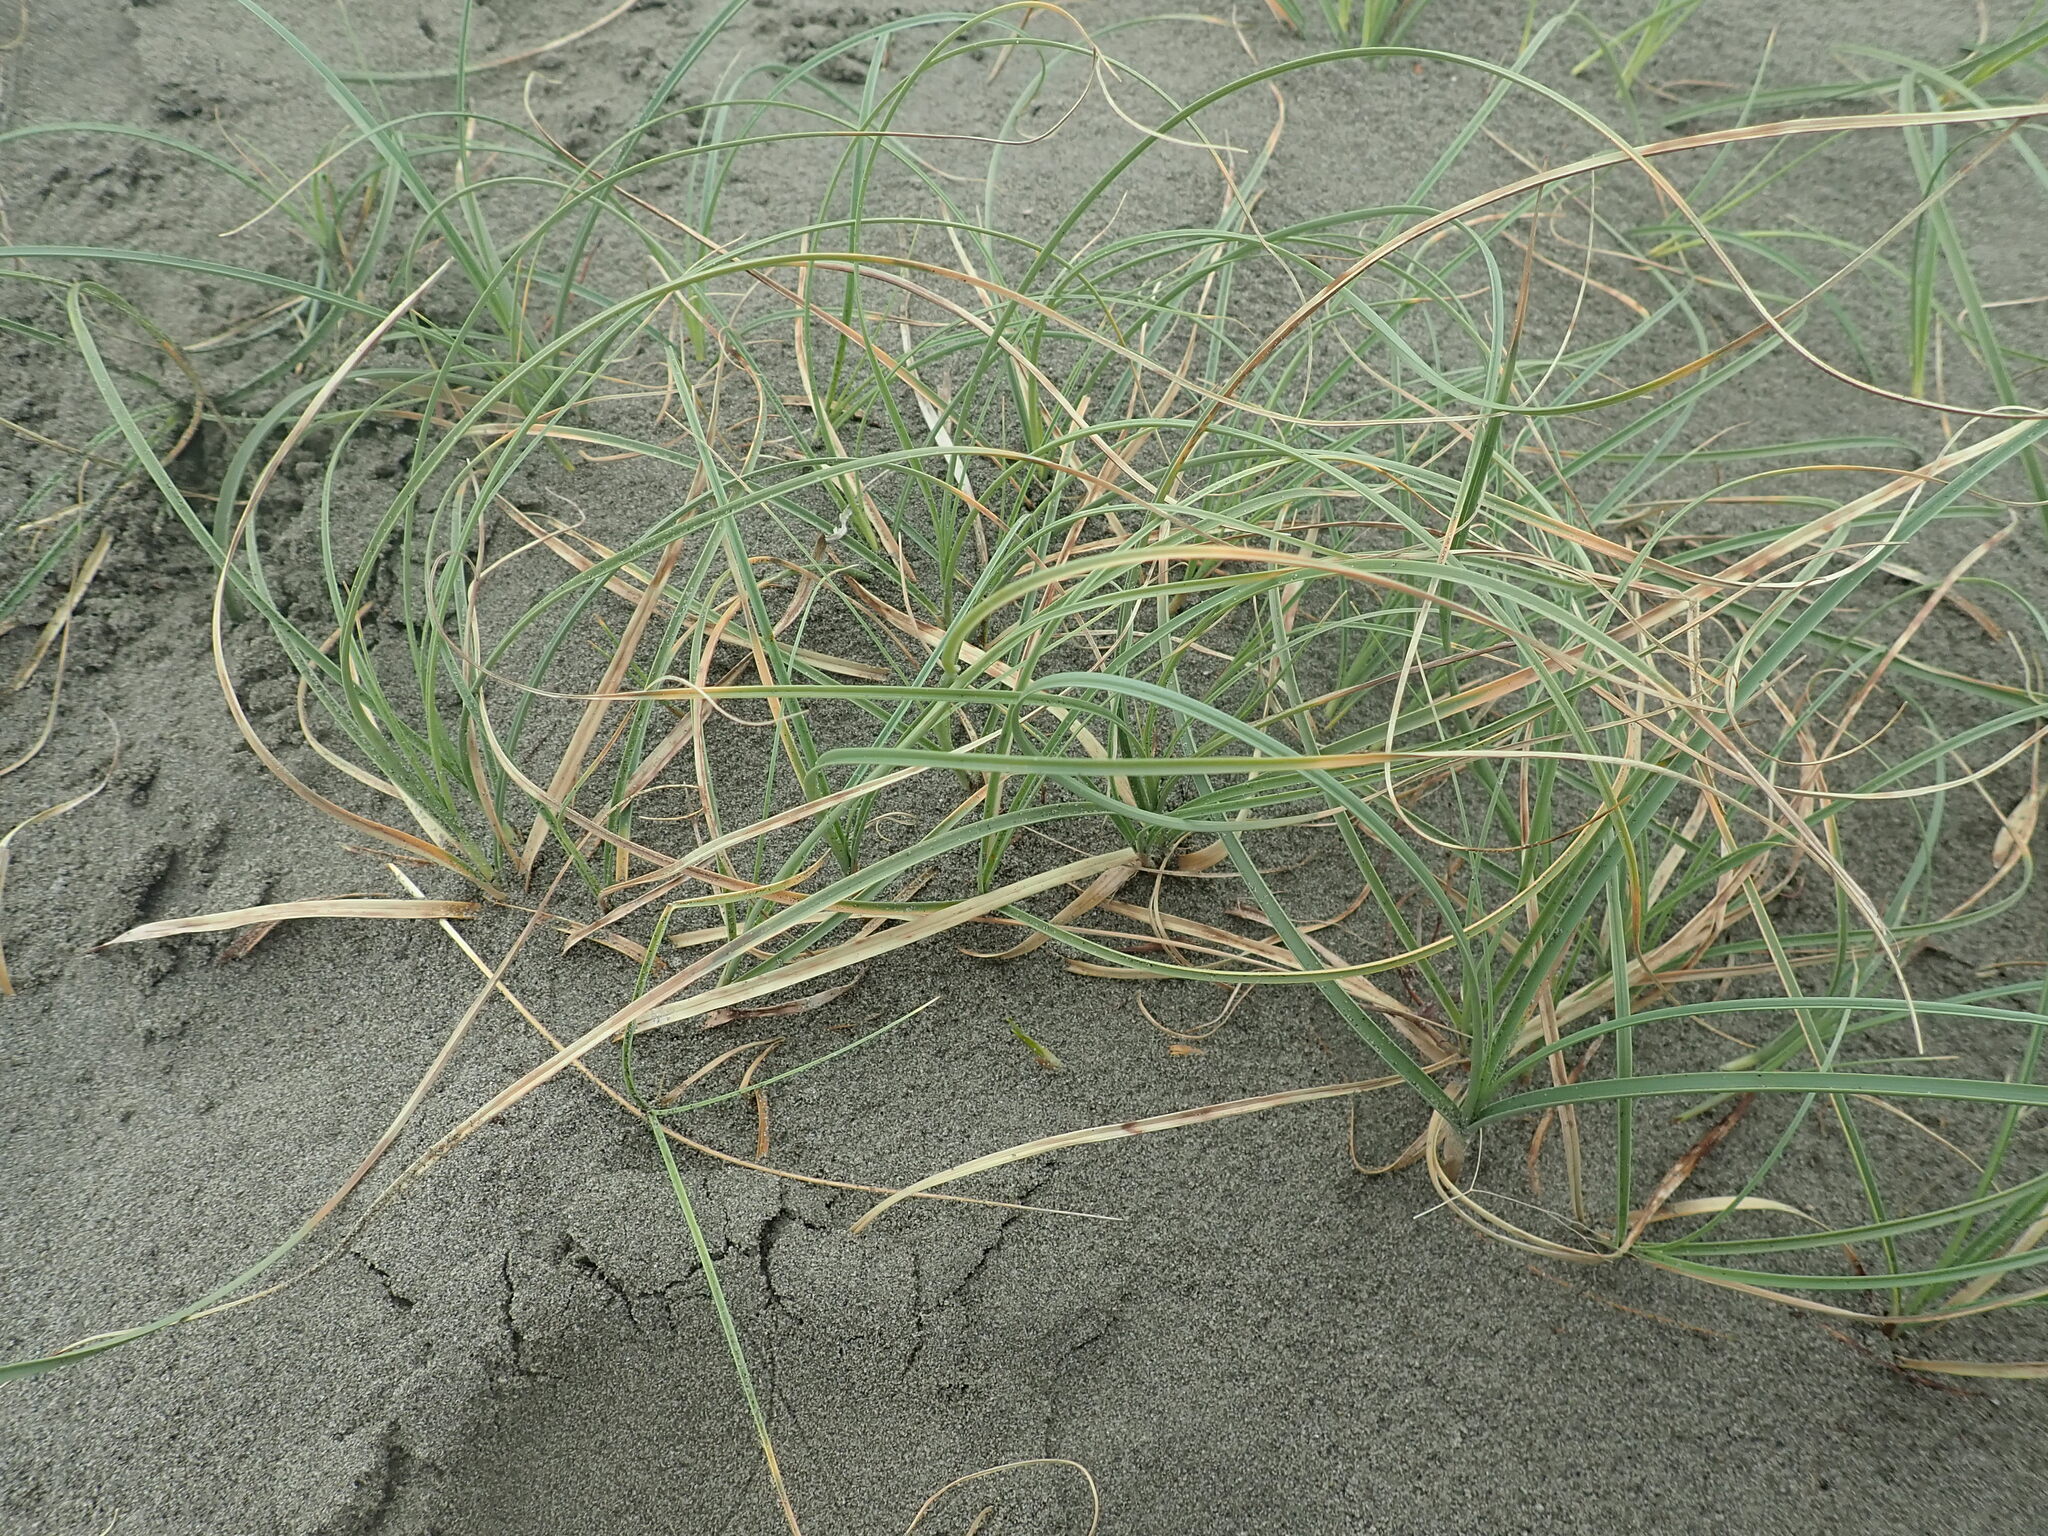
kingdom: Plantae
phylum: Tracheophyta
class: Liliopsida
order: Poales
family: Cyperaceae
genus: Carex
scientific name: Carex pumila
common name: Dwarf sedge
